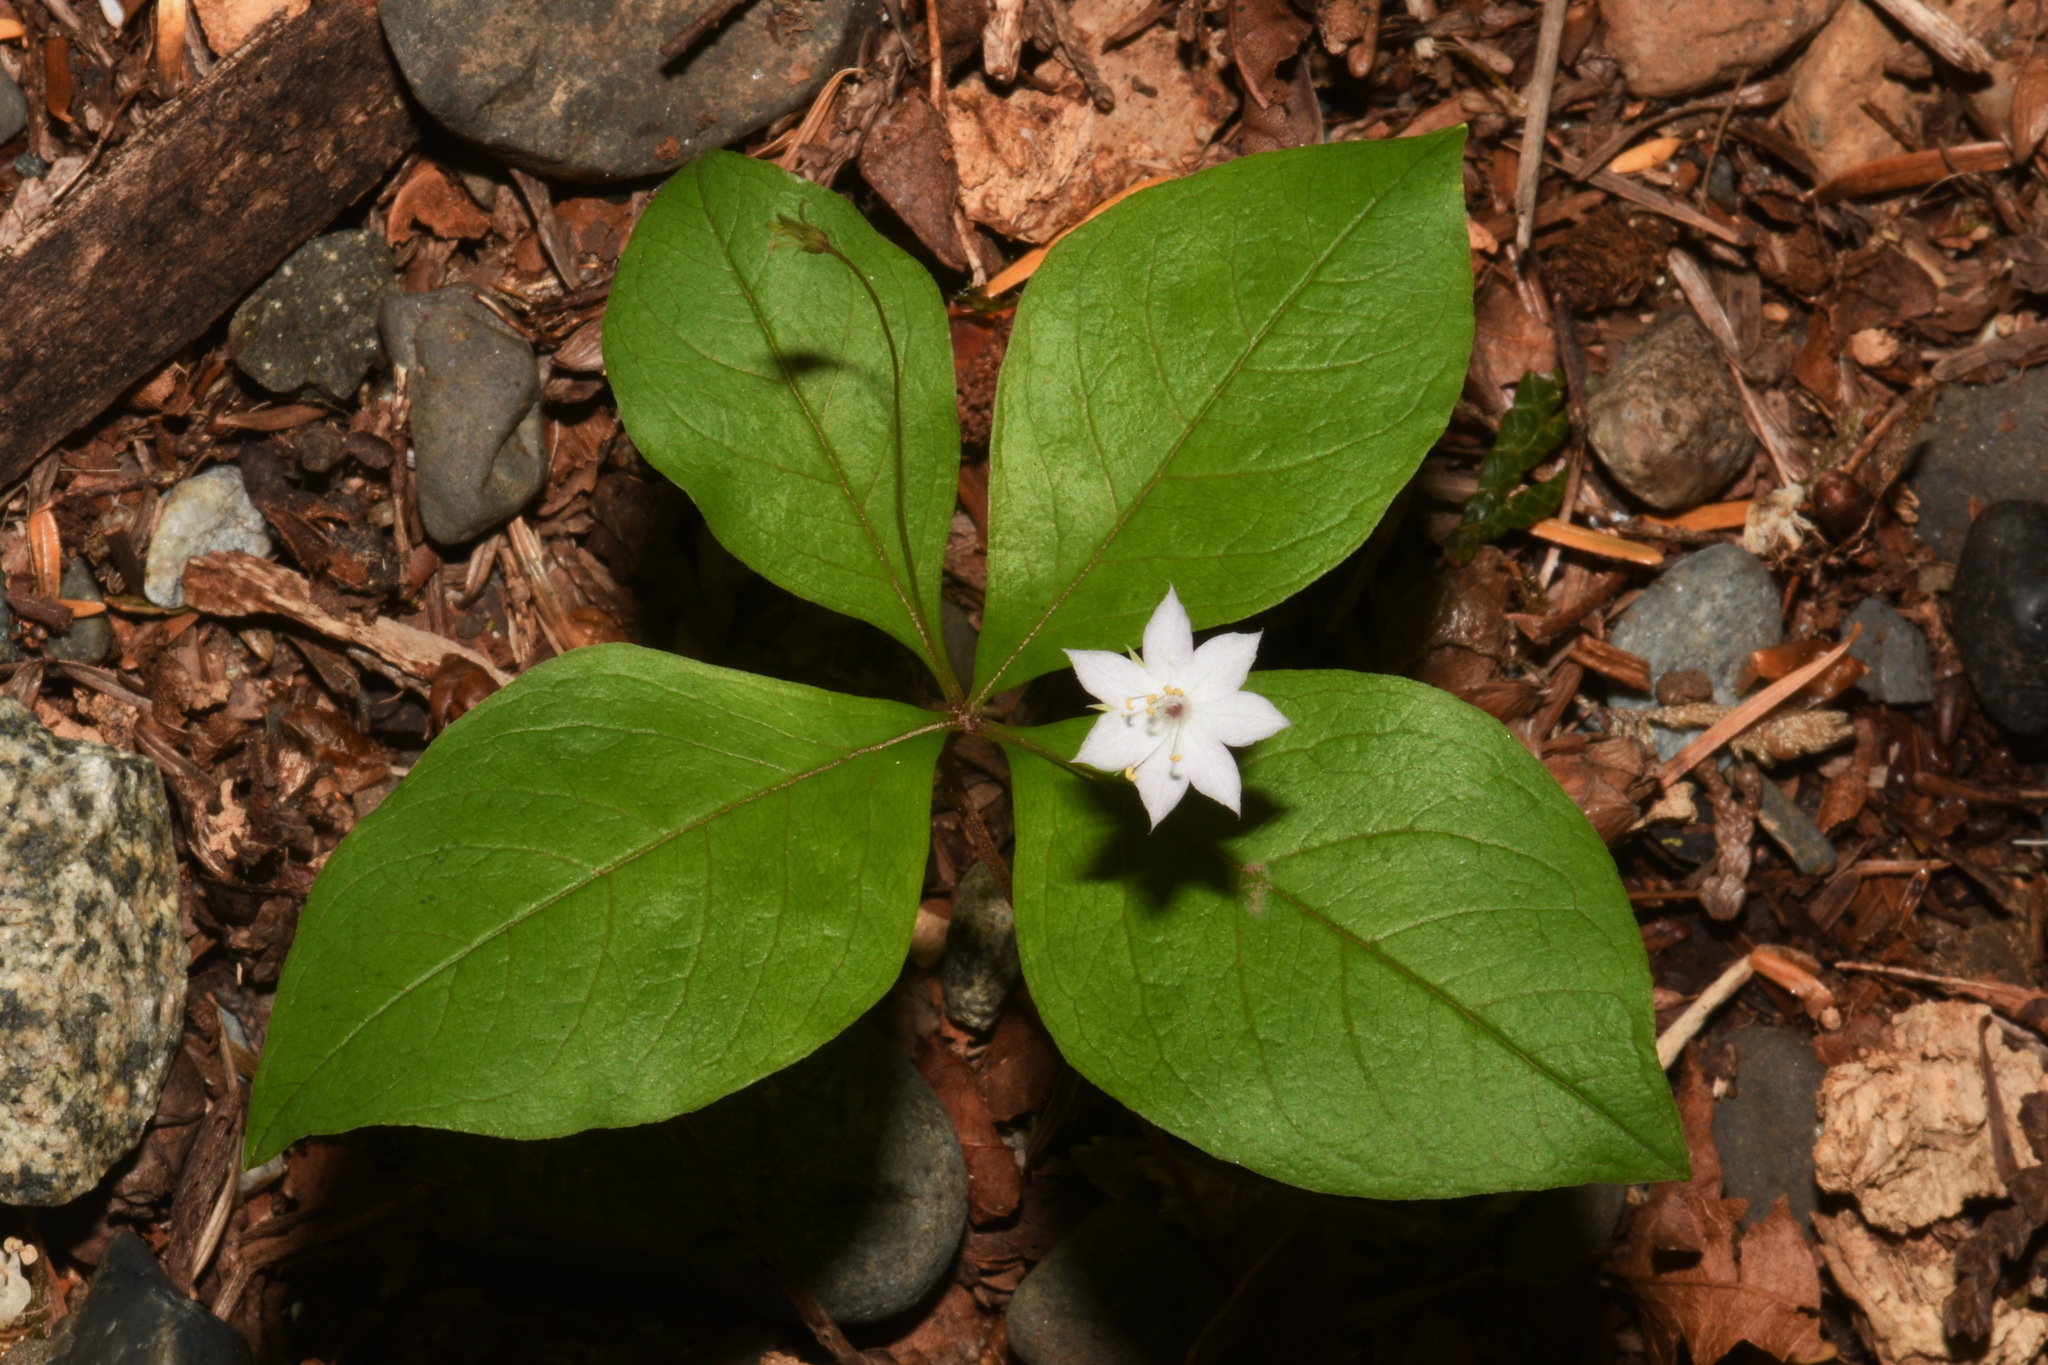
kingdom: Plantae
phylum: Tracheophyta
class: Magnoliopsida
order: Ericales
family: Primulaceae
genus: Lysimachia
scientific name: Lysimachia latifolia
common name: Pacific starflower
